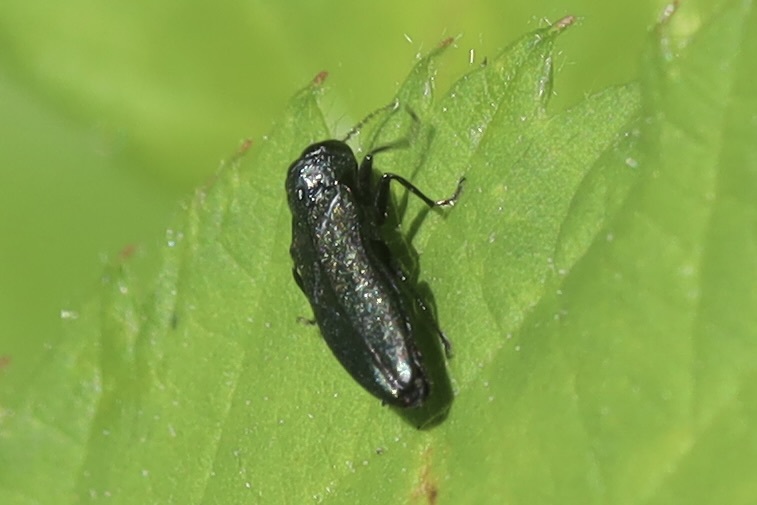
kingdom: Animalia
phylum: Arthropoda
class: Insecta
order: Coleoptera
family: Buprestidae
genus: Agrilus
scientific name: Agrilus cyanescens
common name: Bluish borer beetle
